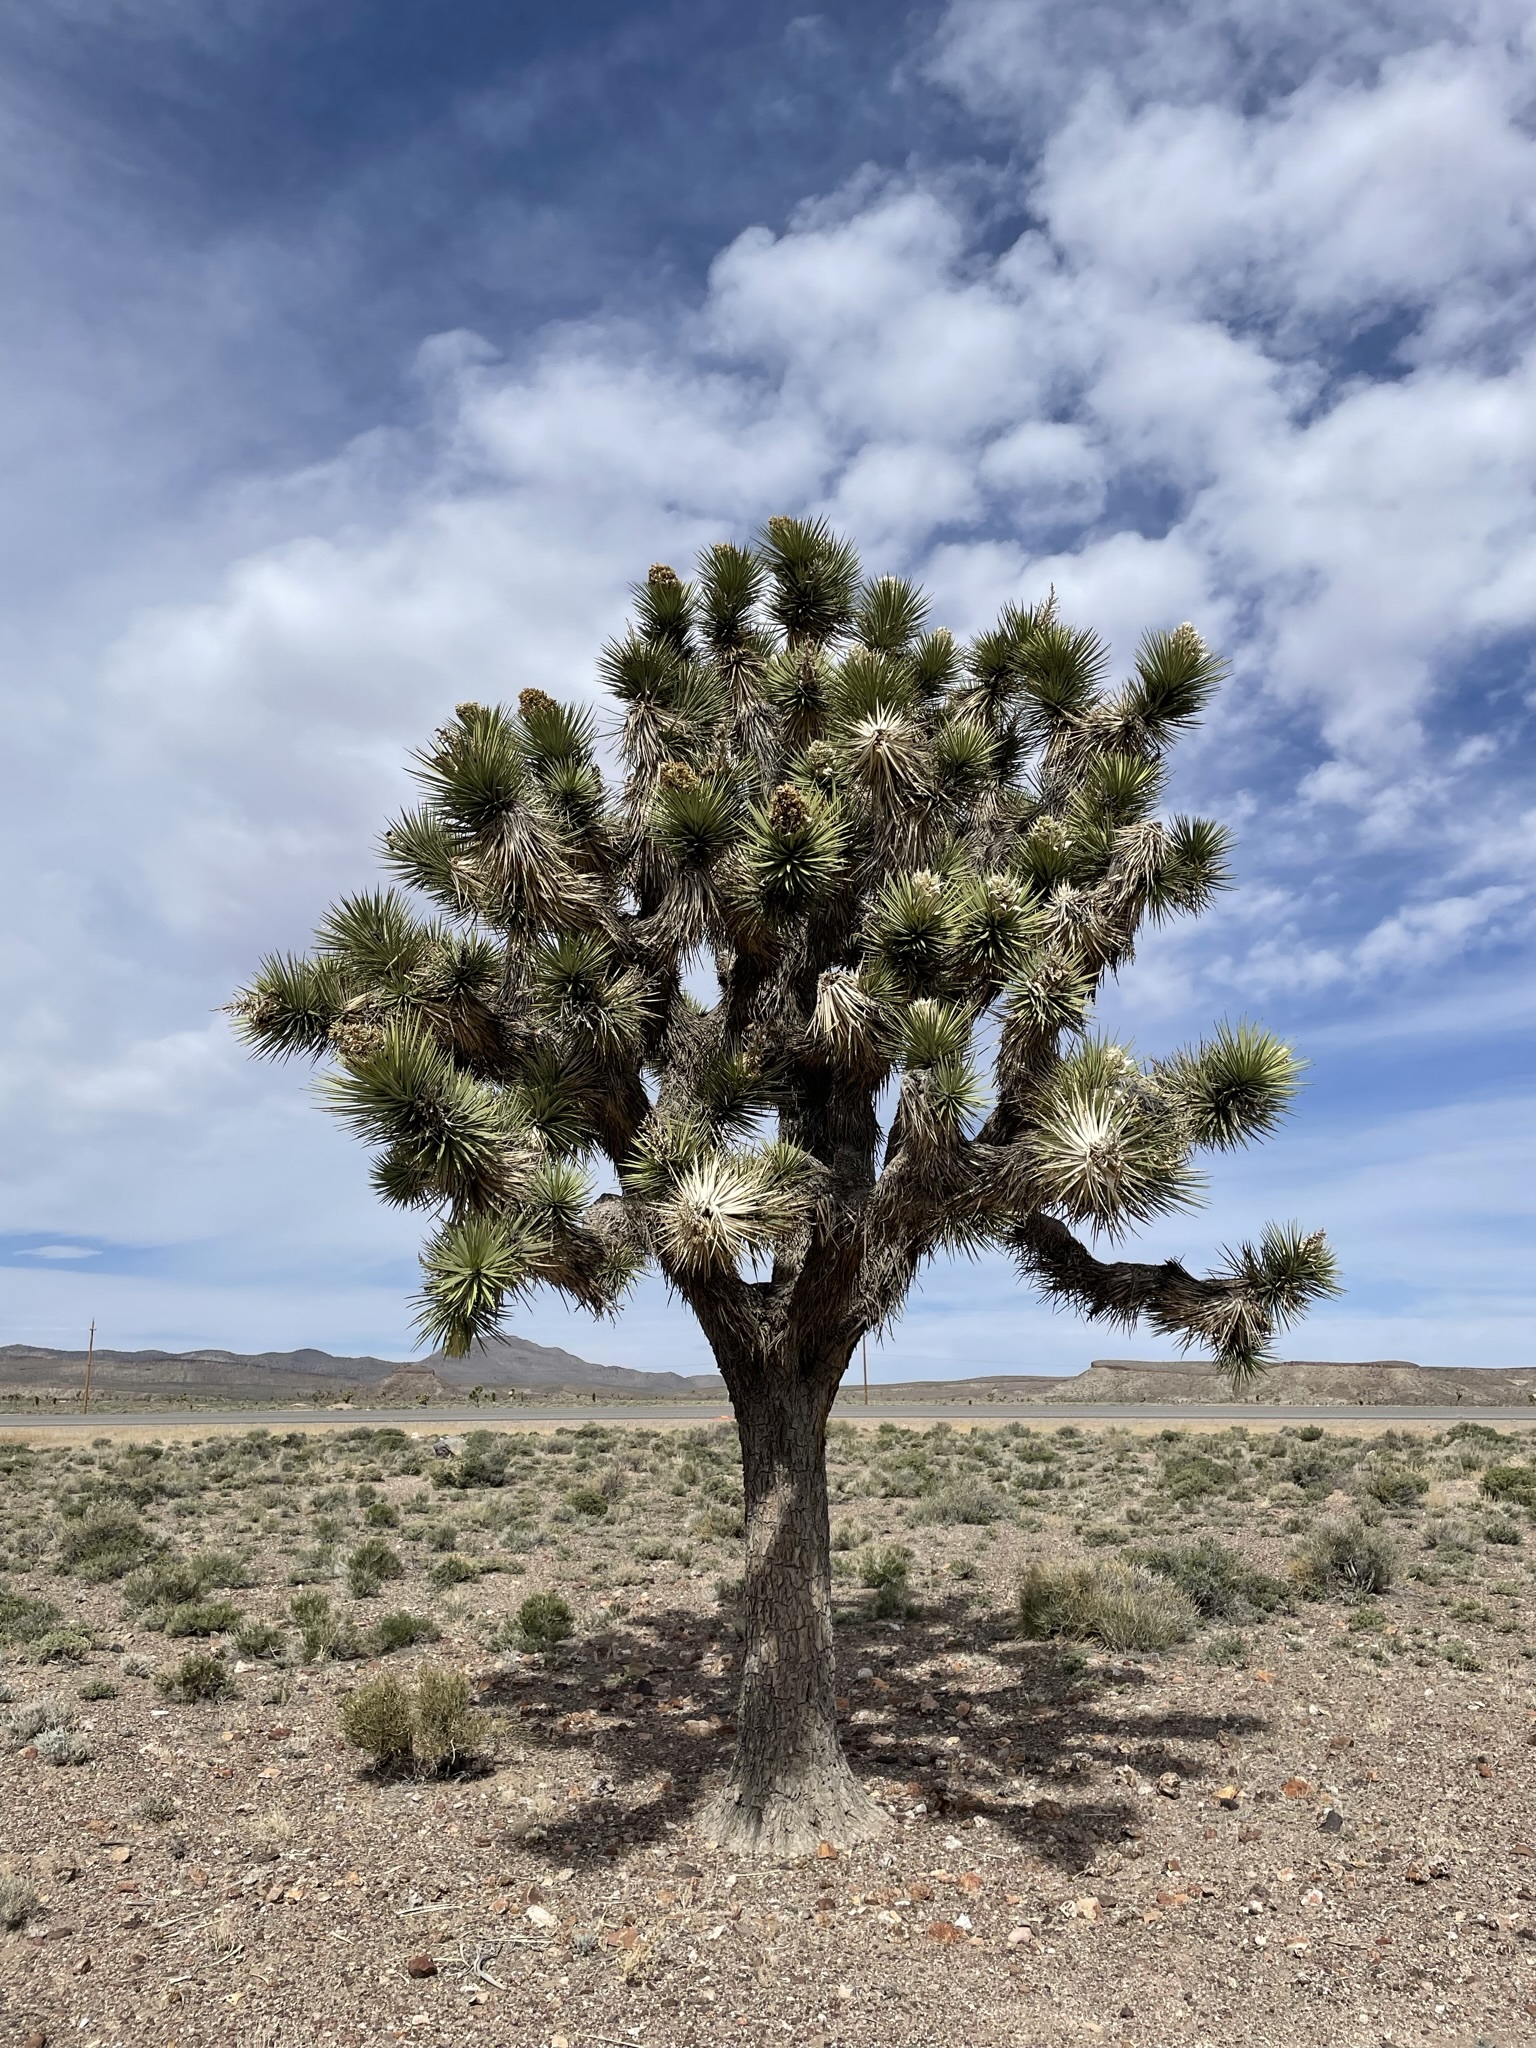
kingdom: Plantae
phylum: Tracheophyta
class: Liliopsida
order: Asparagales
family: Asparagaceae
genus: Yucca
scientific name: Yucca brevifolia
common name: Joshua tree
